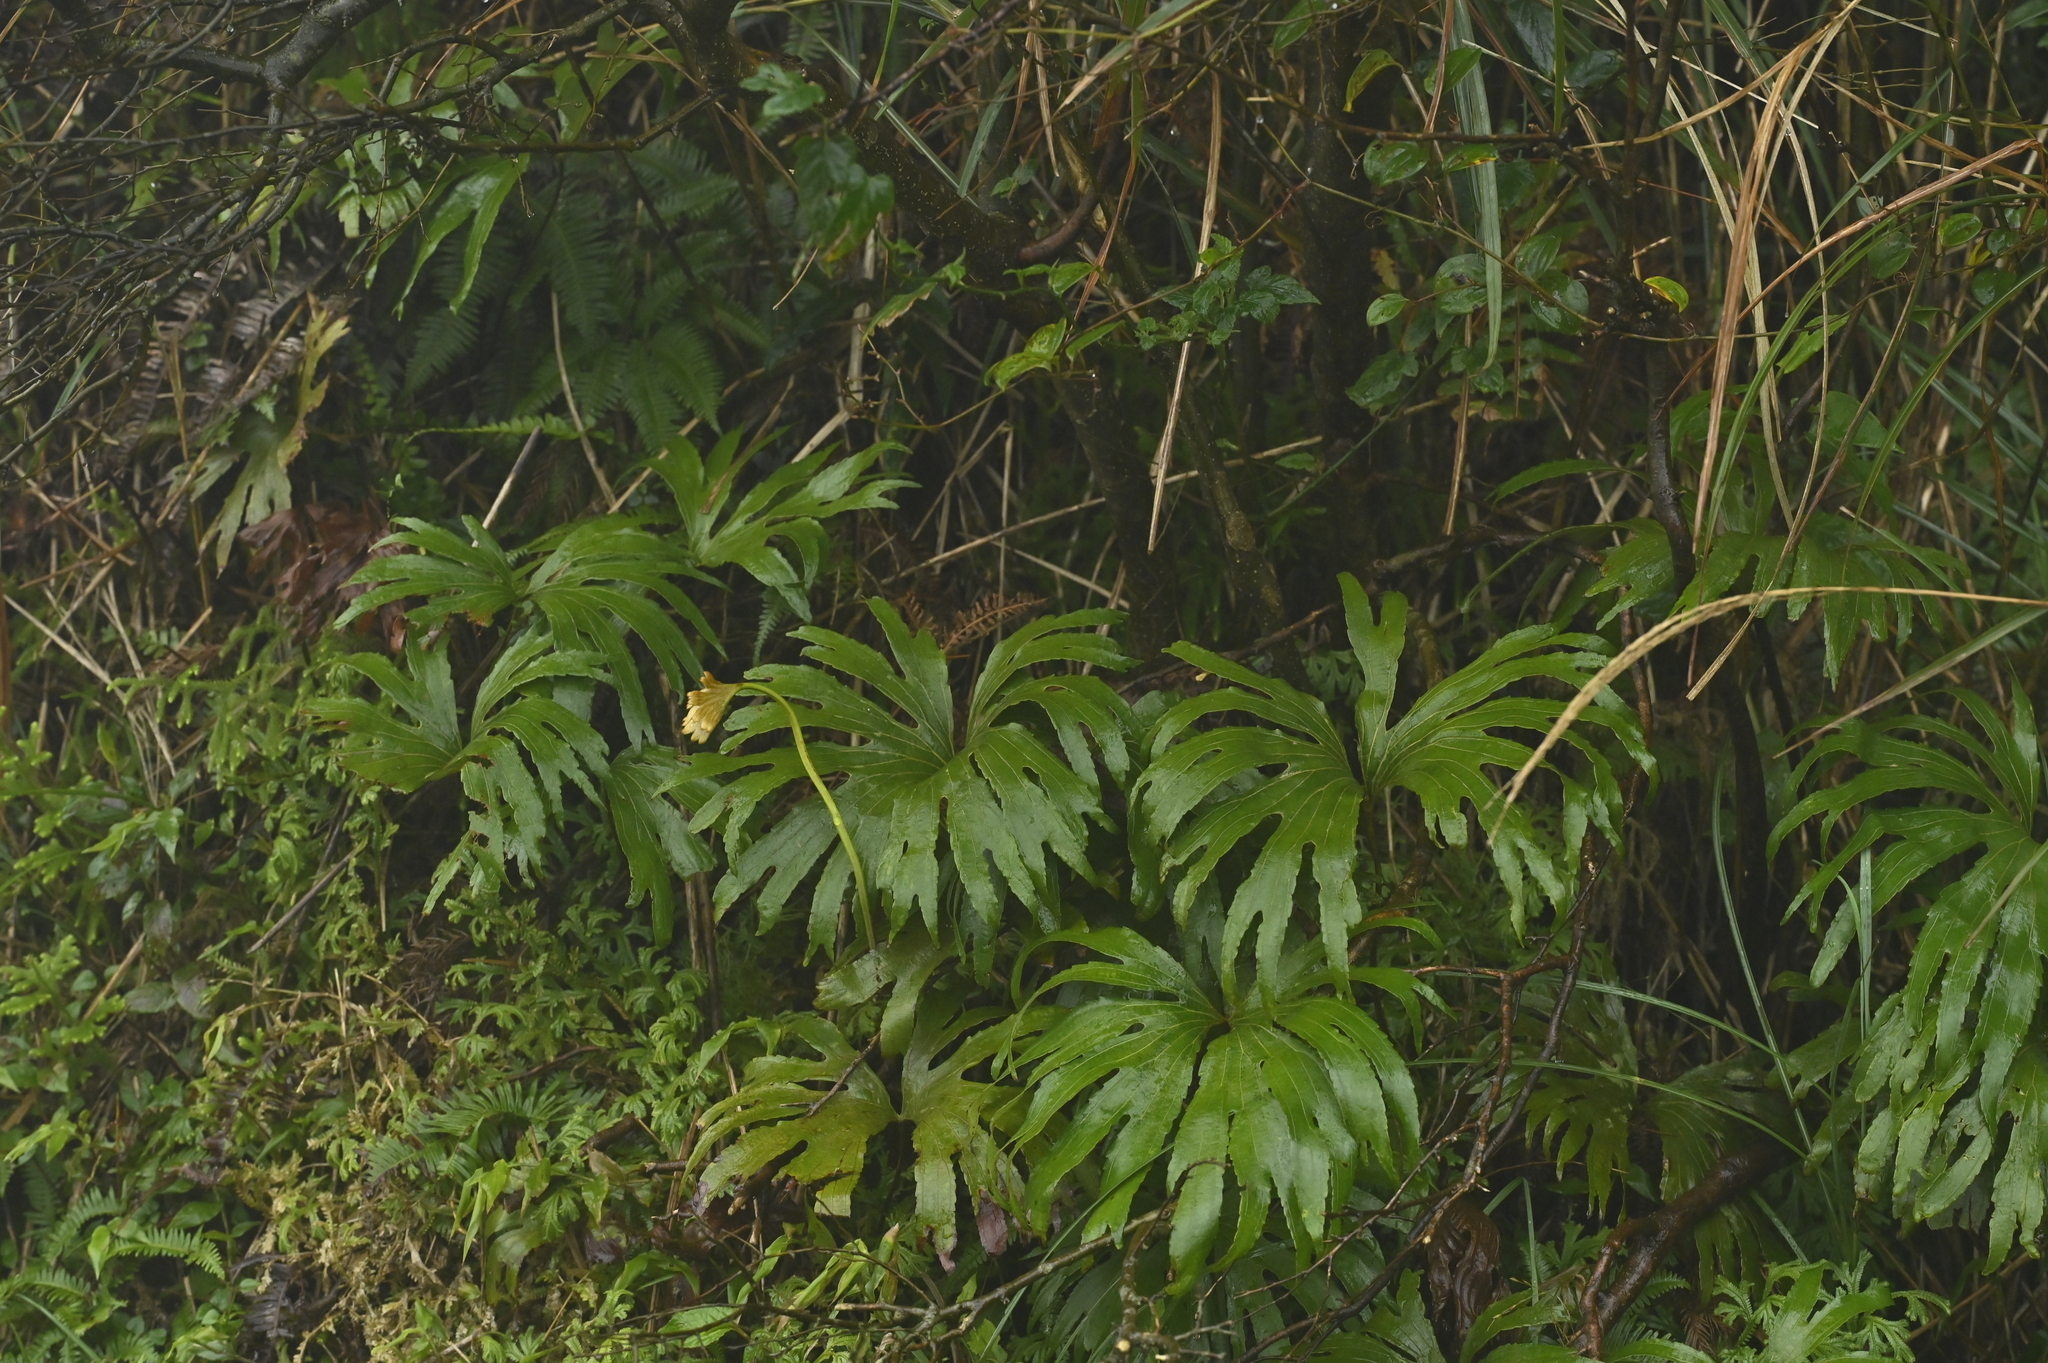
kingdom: Plantae
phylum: Tracheophyta
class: Polypodiopsida
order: Gleicheniales
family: Dipteridaceae
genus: Dipteris
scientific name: Dipteris conjugata
